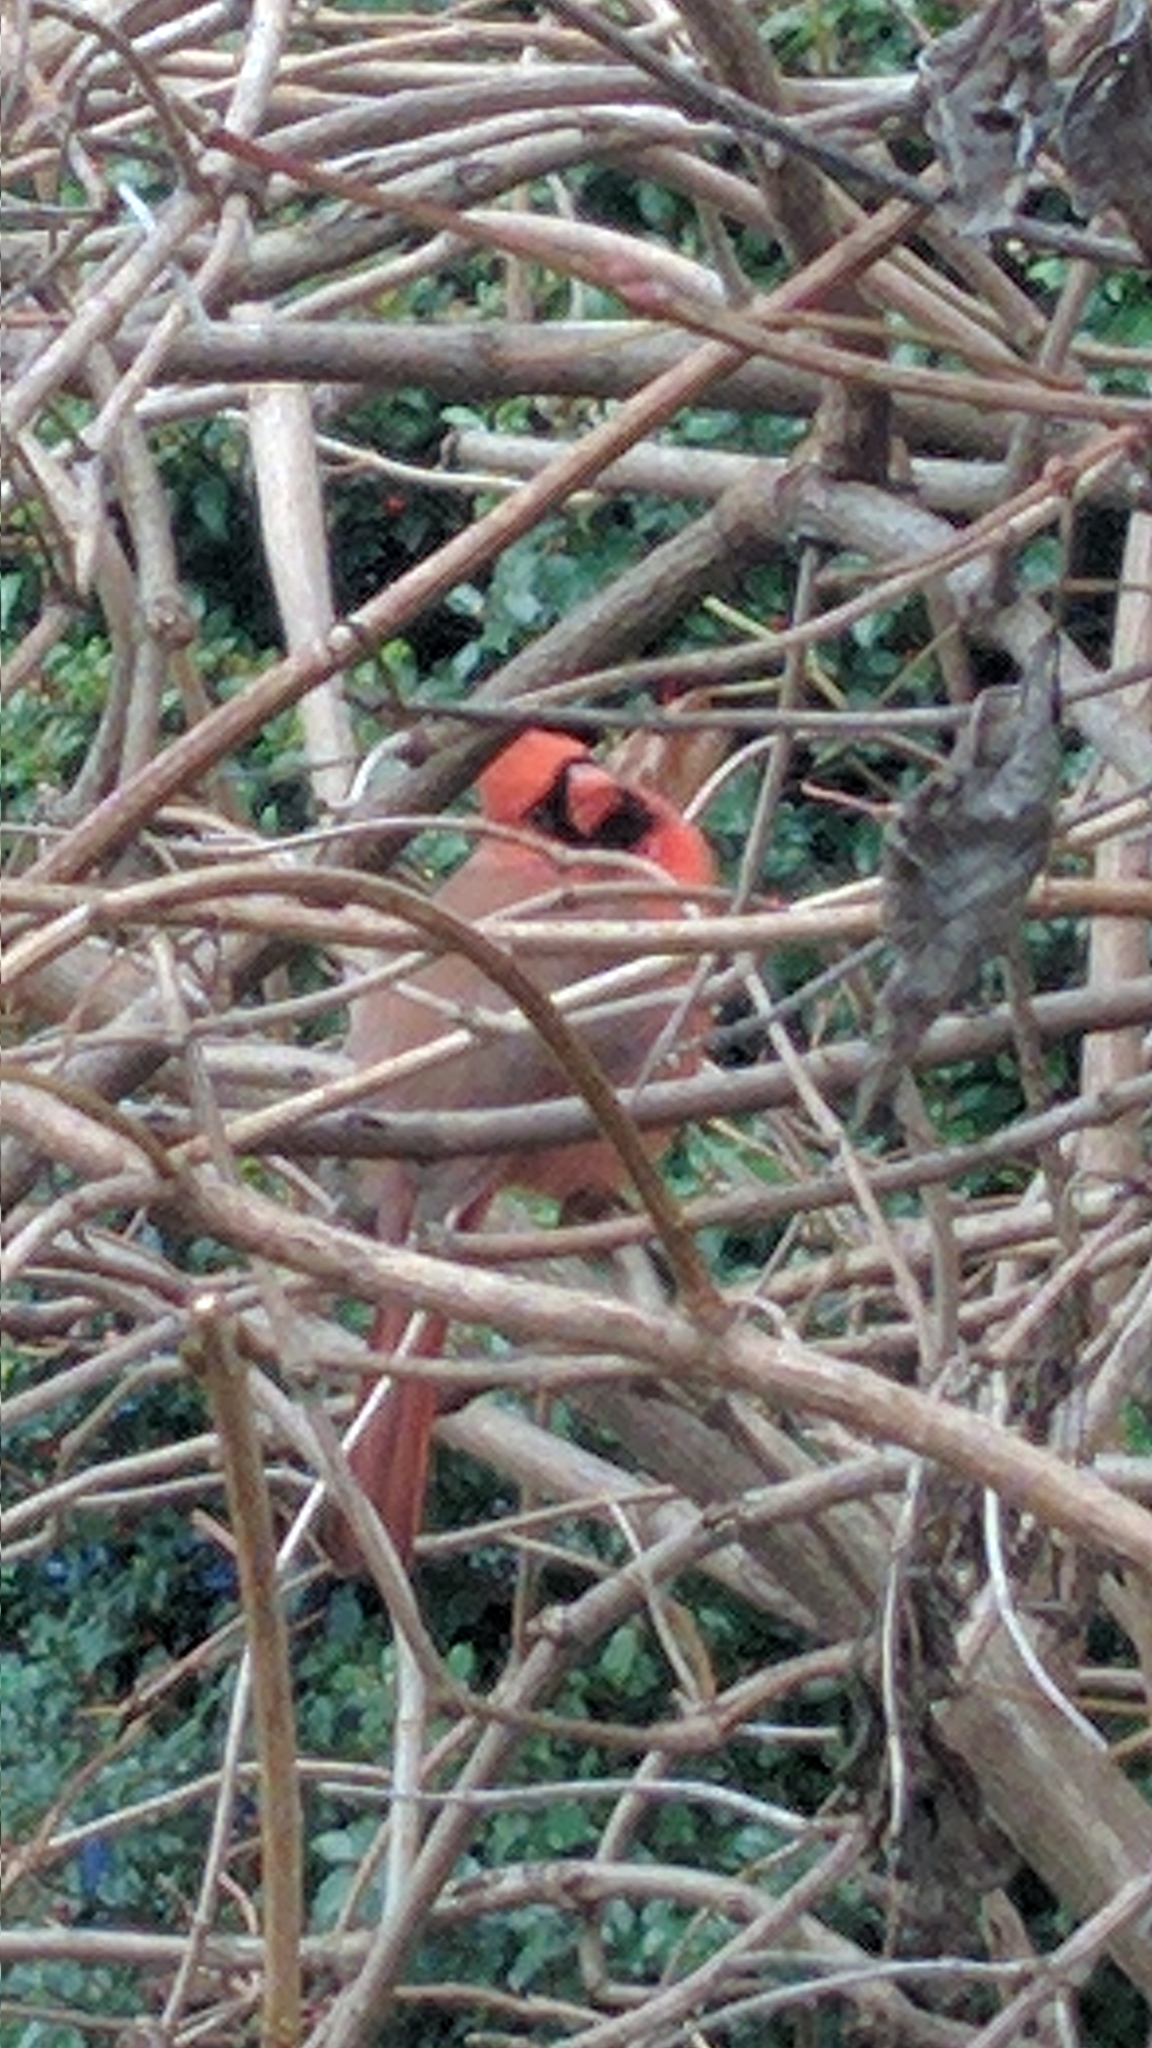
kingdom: Animalia
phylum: Chordata
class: Aves
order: Passeriformes
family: Cardinalidae
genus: Cardinalis
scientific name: Cardinalis cardinalis
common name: Northern cardinal
